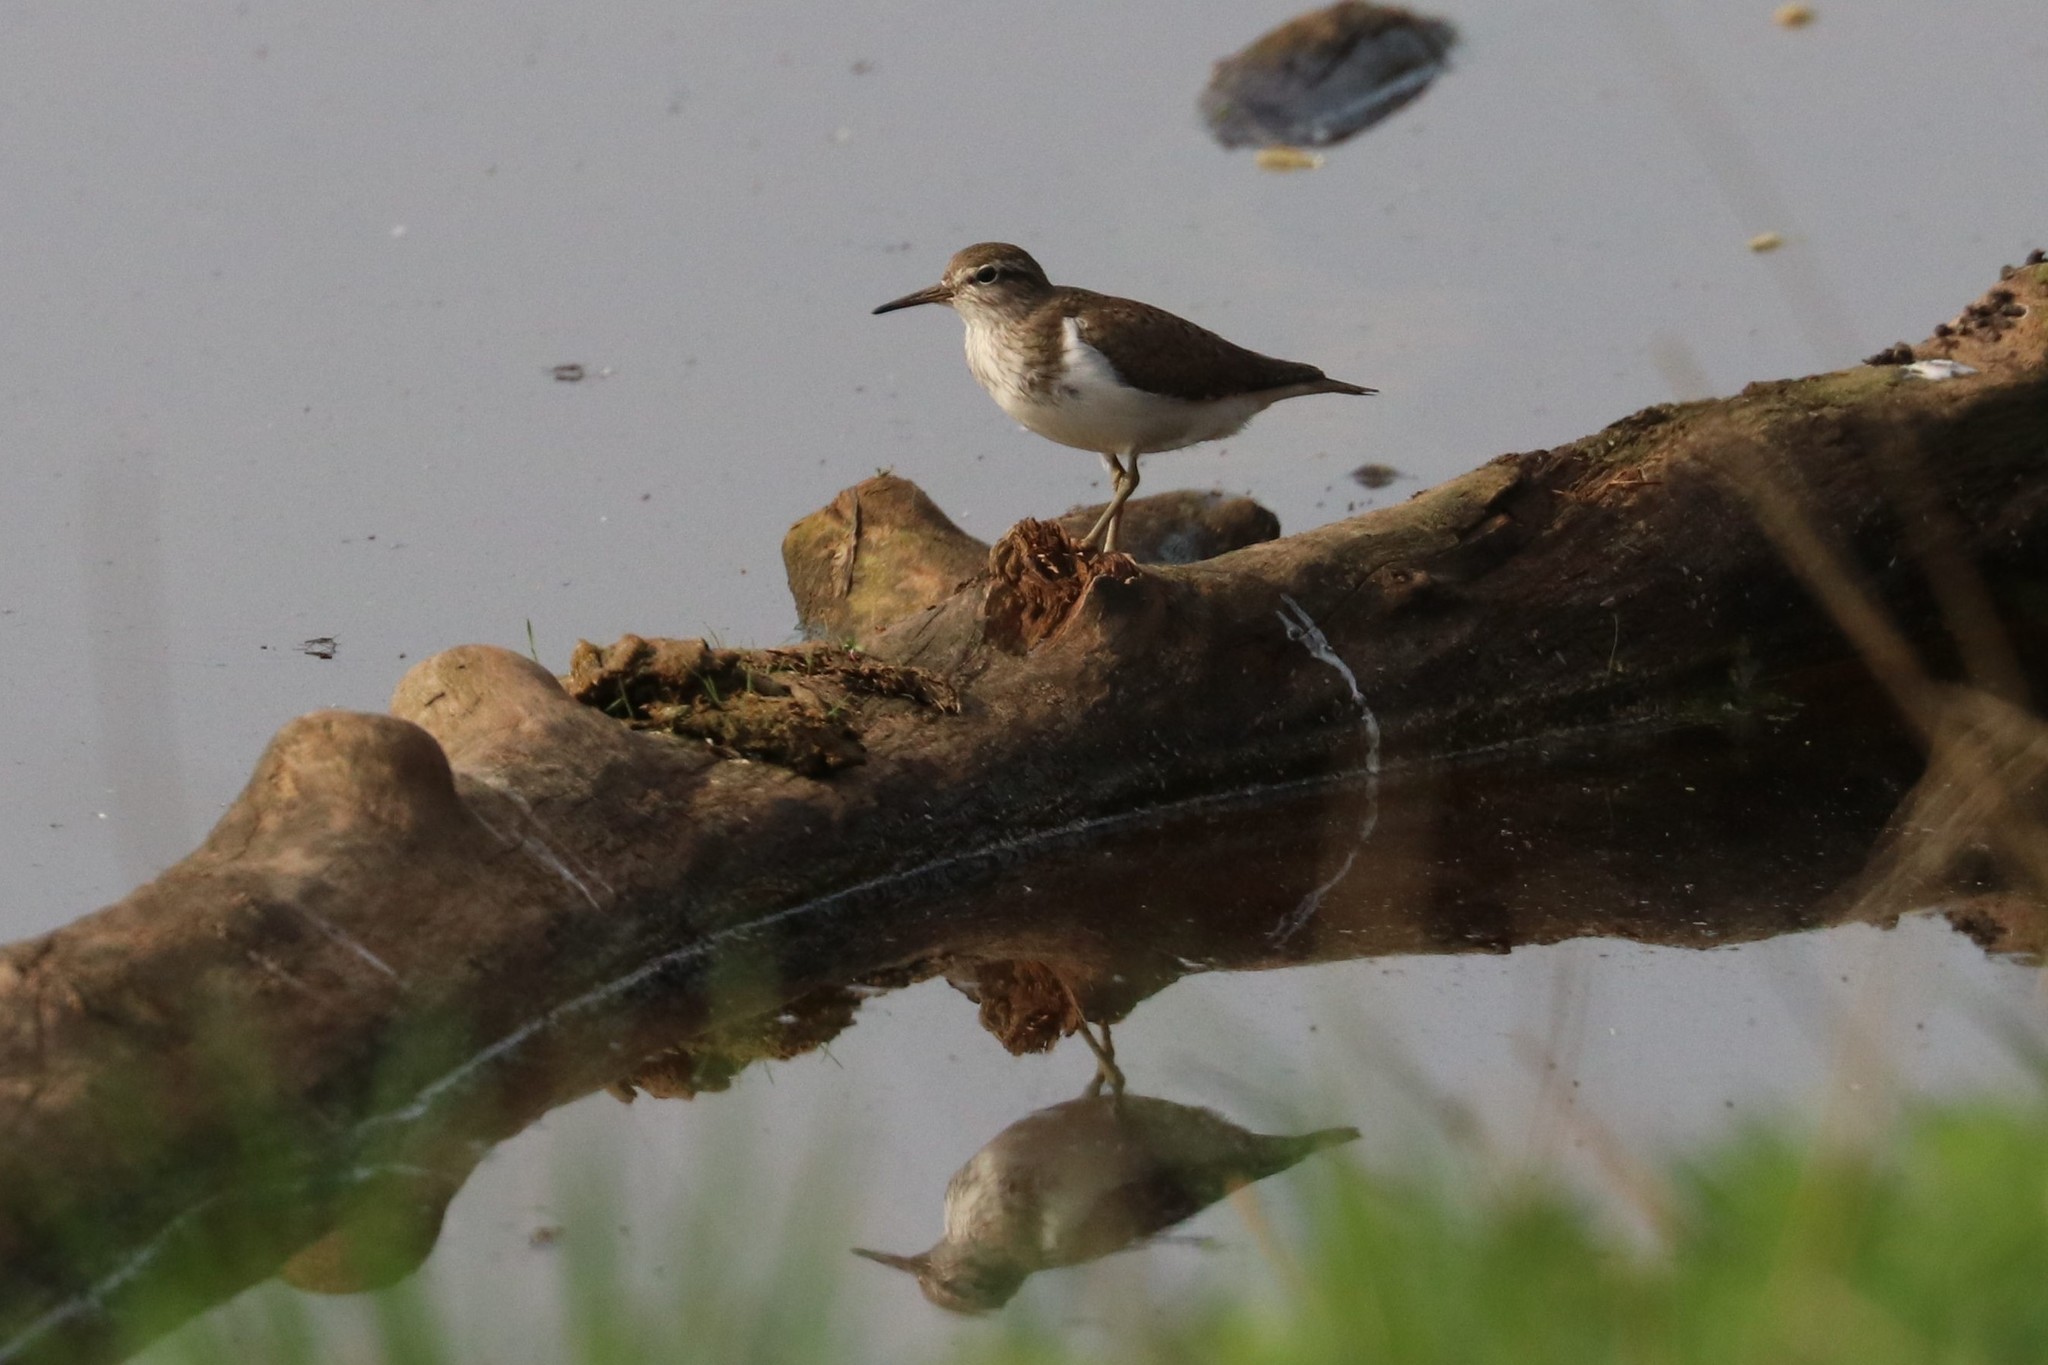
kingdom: Animalia
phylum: Chordata
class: Aves
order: Charadriiformes
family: Scolopacidae
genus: Actitis
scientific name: Actitis hypoleucos
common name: Common sandpiper
